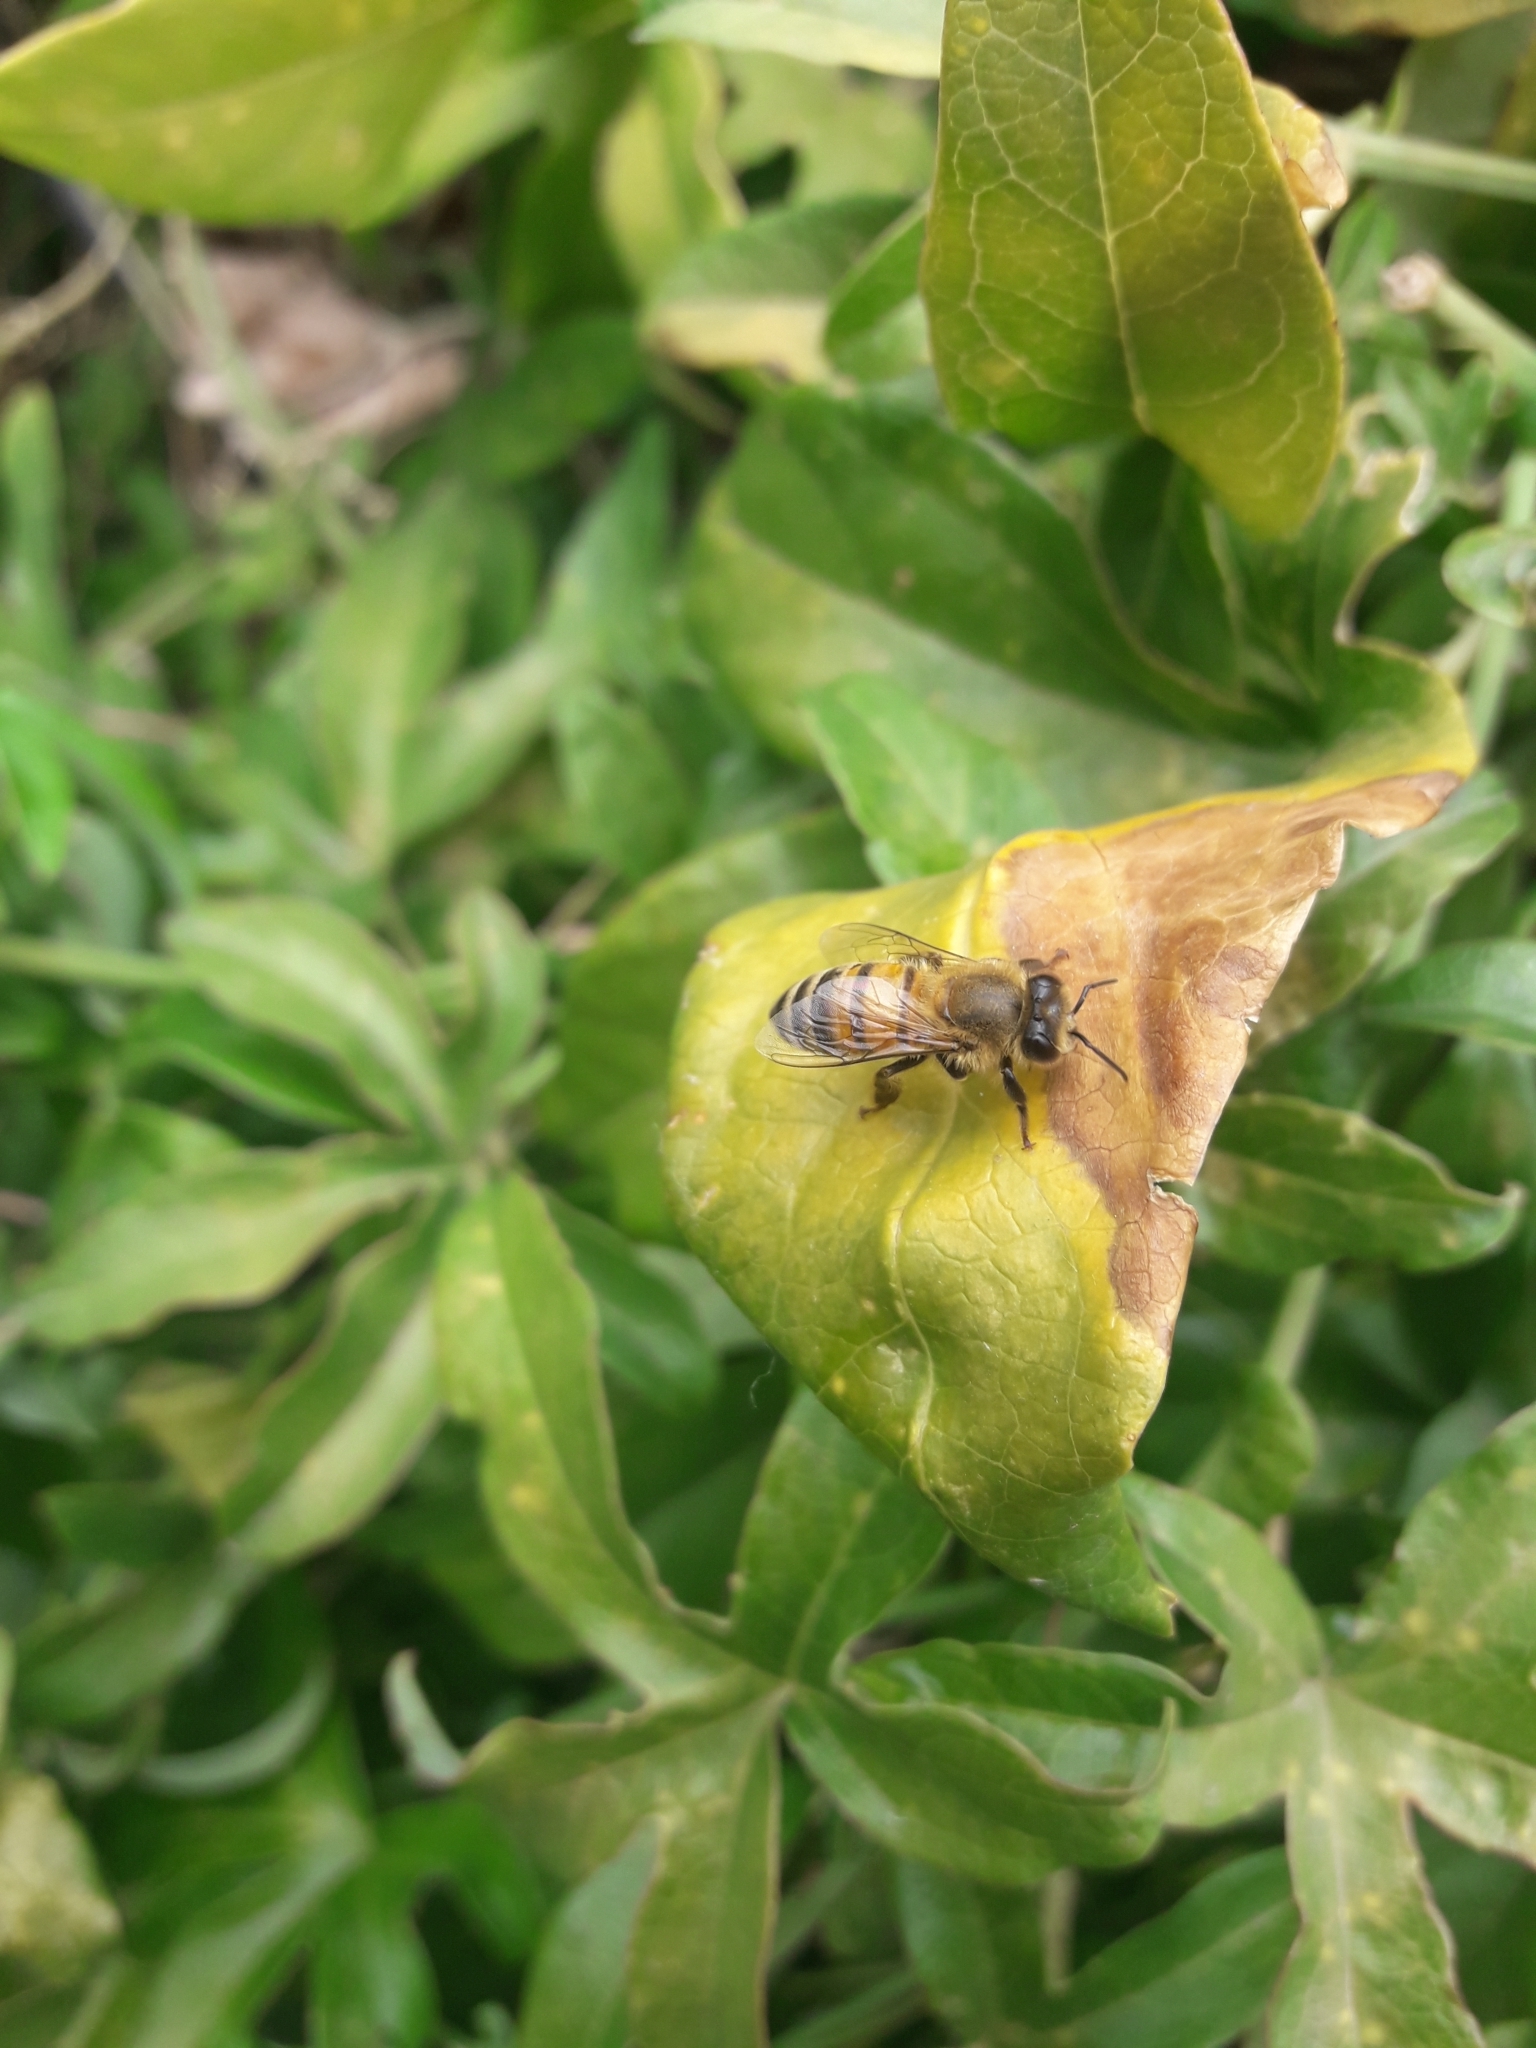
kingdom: Animalia
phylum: Arthropoda
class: Insecta
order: Hymenoptera
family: Apidae
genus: Apis
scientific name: Apis mellifera
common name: Honey bee
